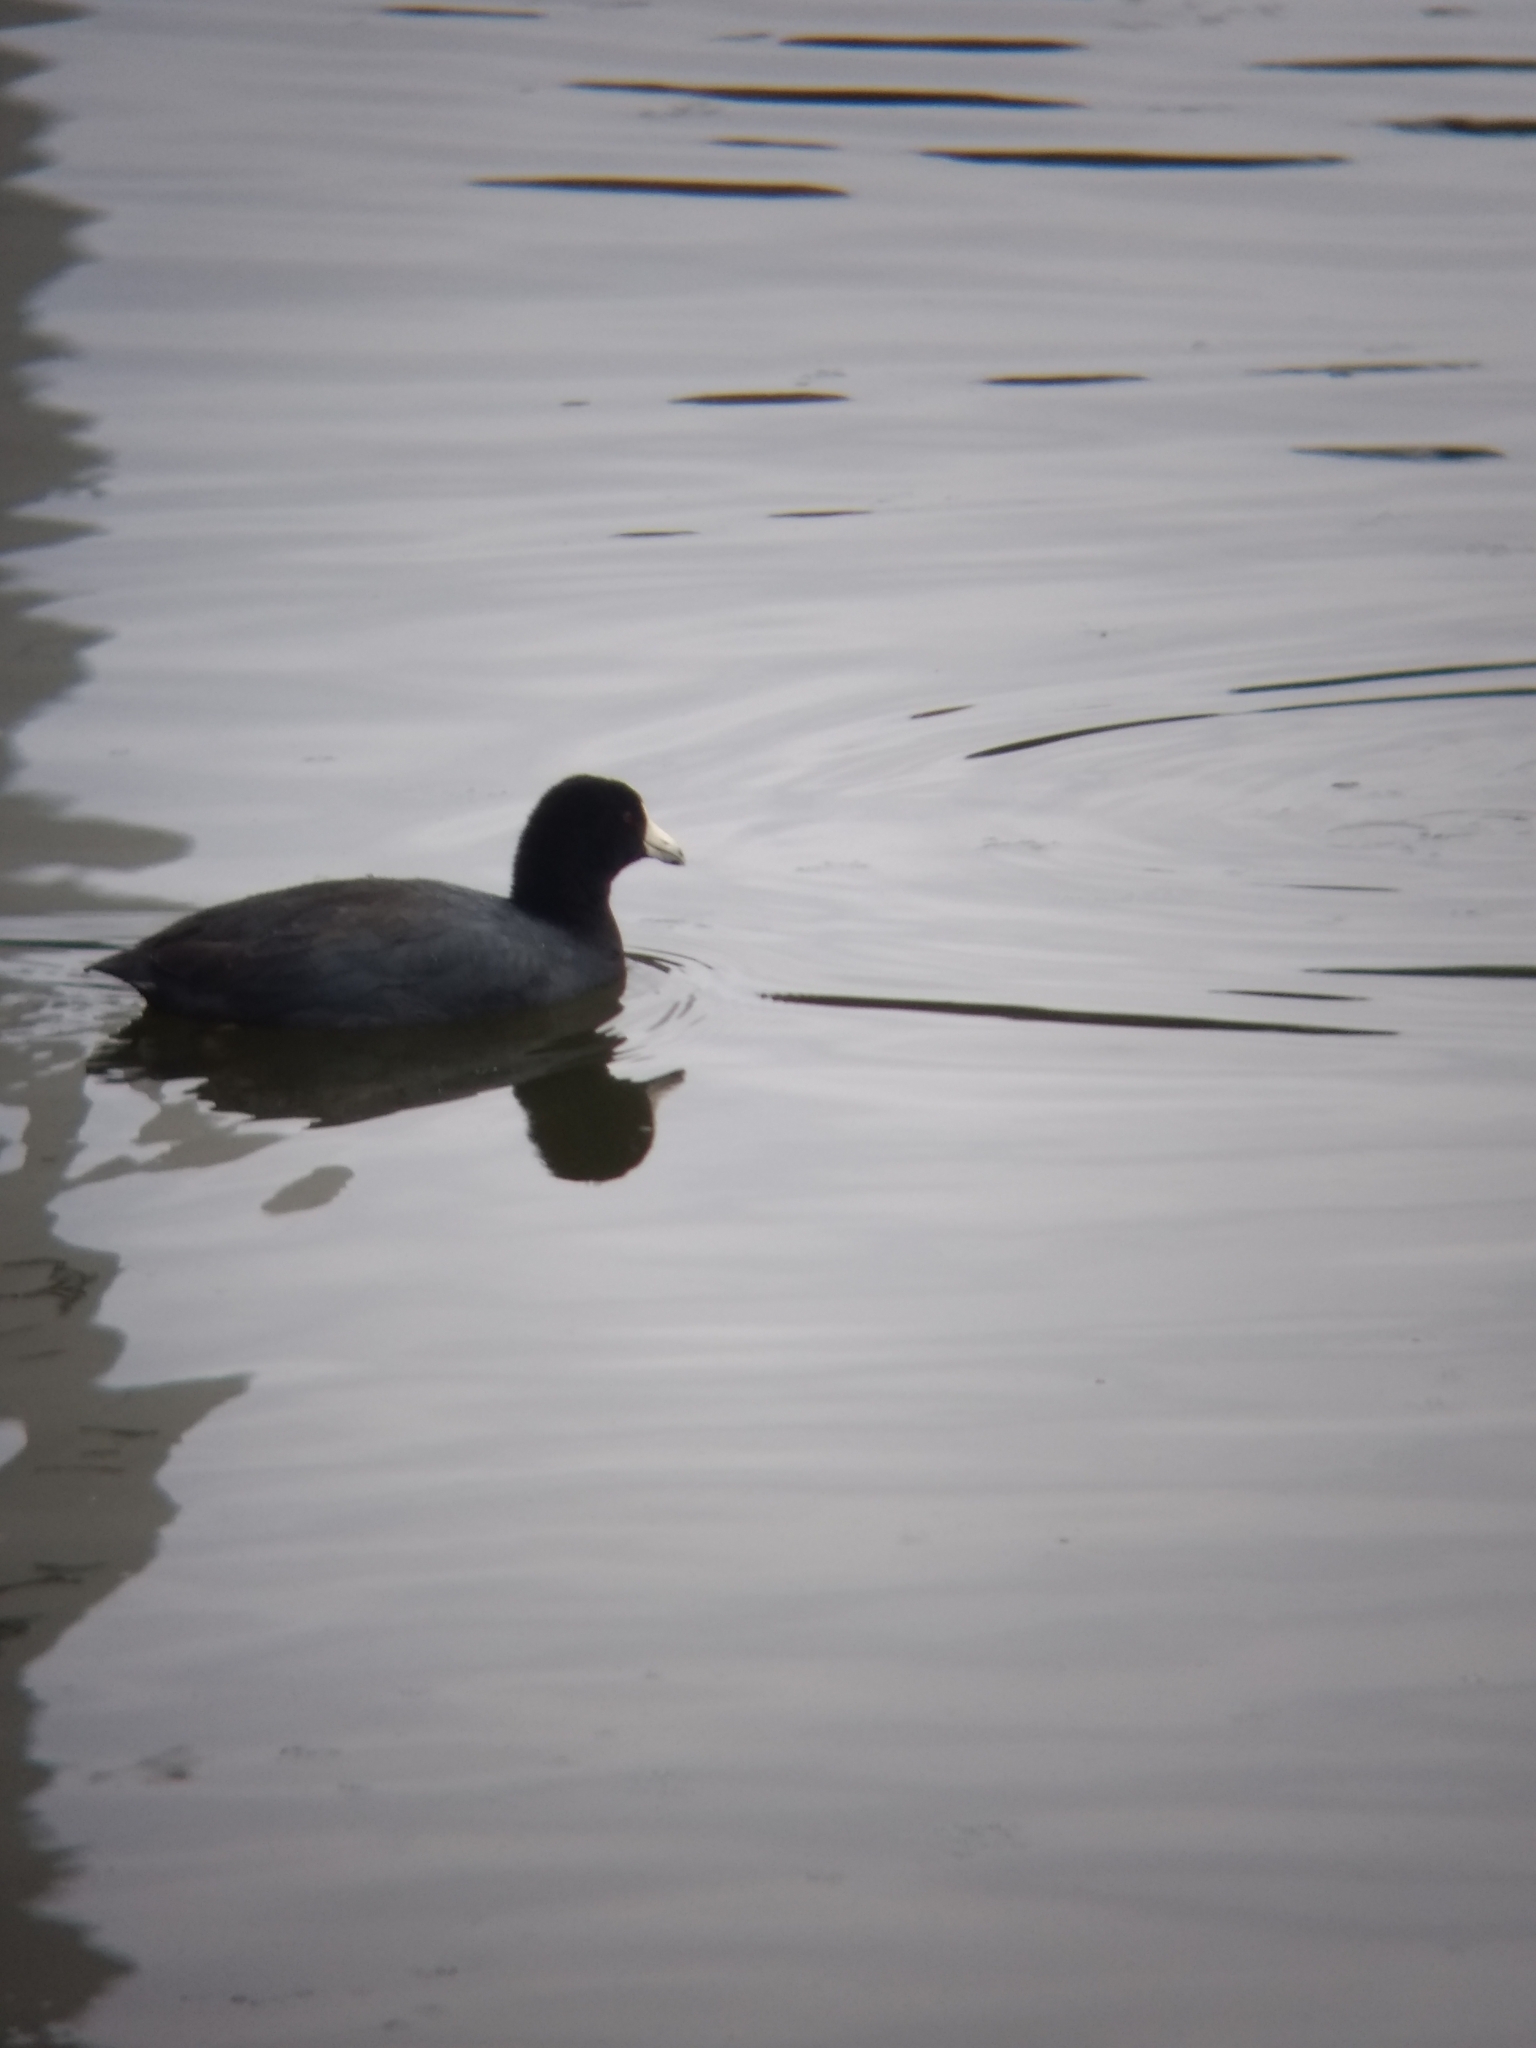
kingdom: Animalia
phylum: Chordata
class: Aves
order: Gruiformes
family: Rallidae
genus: Fulica
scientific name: Fulica americana
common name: American coot
